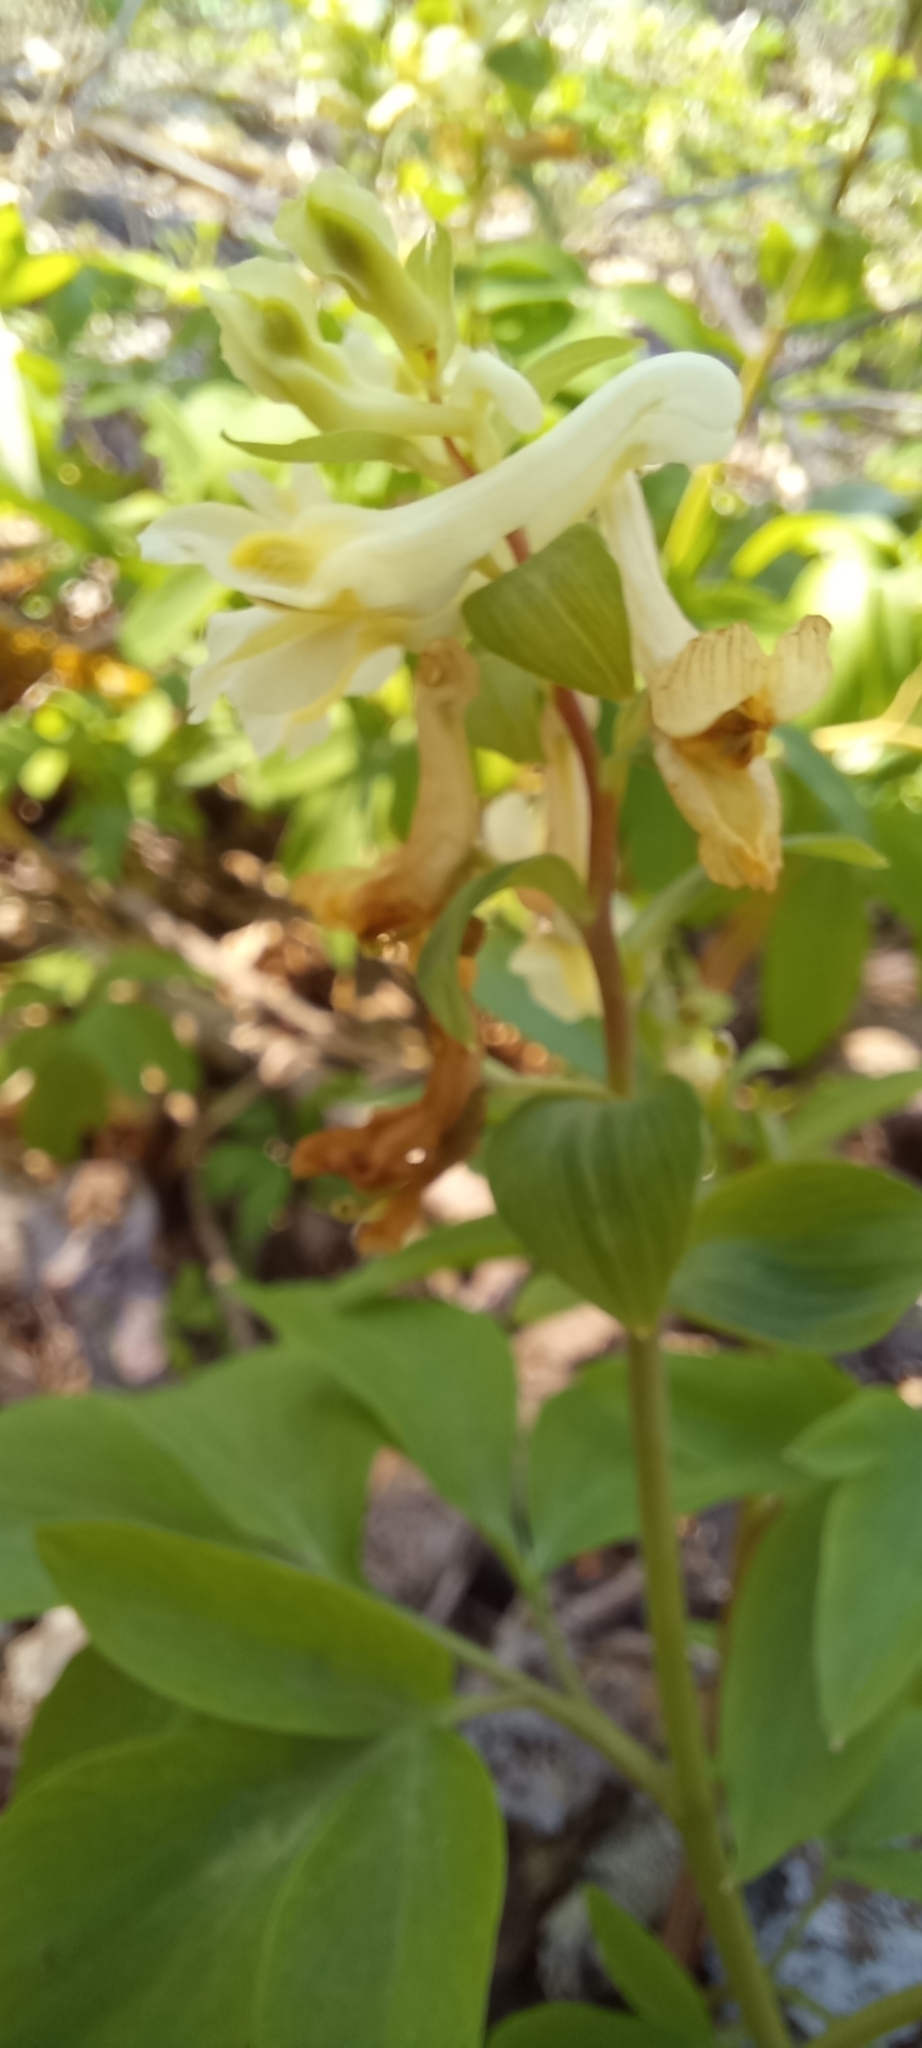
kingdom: Plantae
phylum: Tracheophyta
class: Magnoliopsida
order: Ranunculales
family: Papaveraceae
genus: Corydalis
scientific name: Corydalis cava
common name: Hollowroot
